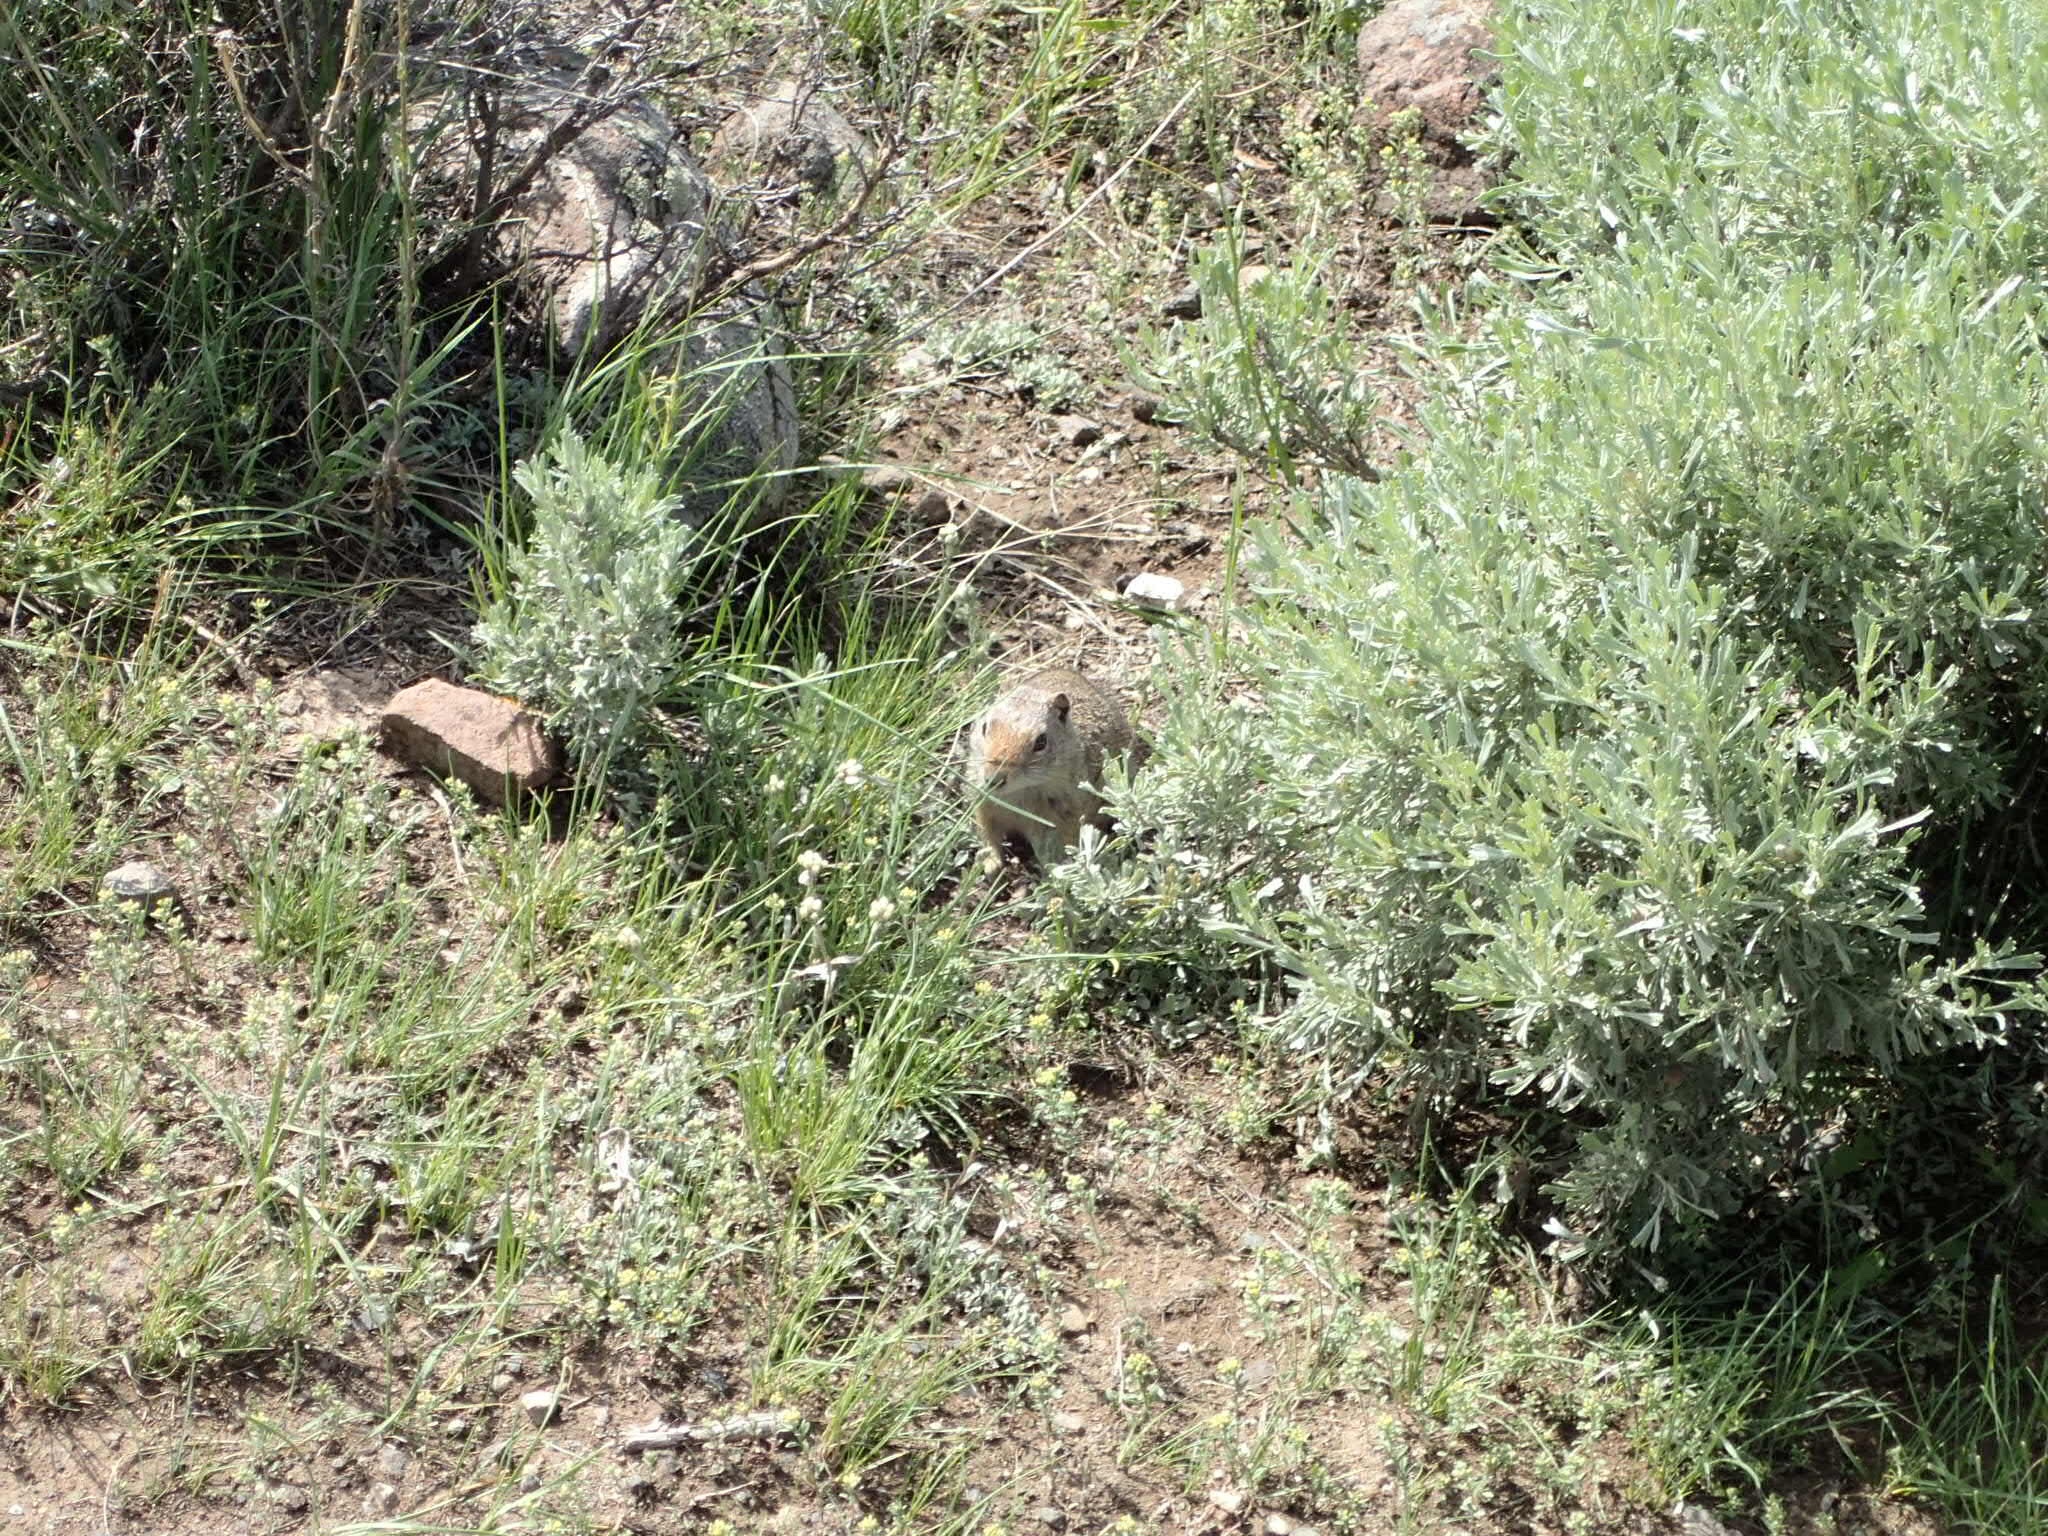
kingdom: Animalia
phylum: Chordata
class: Mammalia
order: Rodentia
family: Sciuridae
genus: Urocitellus
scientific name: Urocitellus armatus
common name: Uinta ground squirrel
